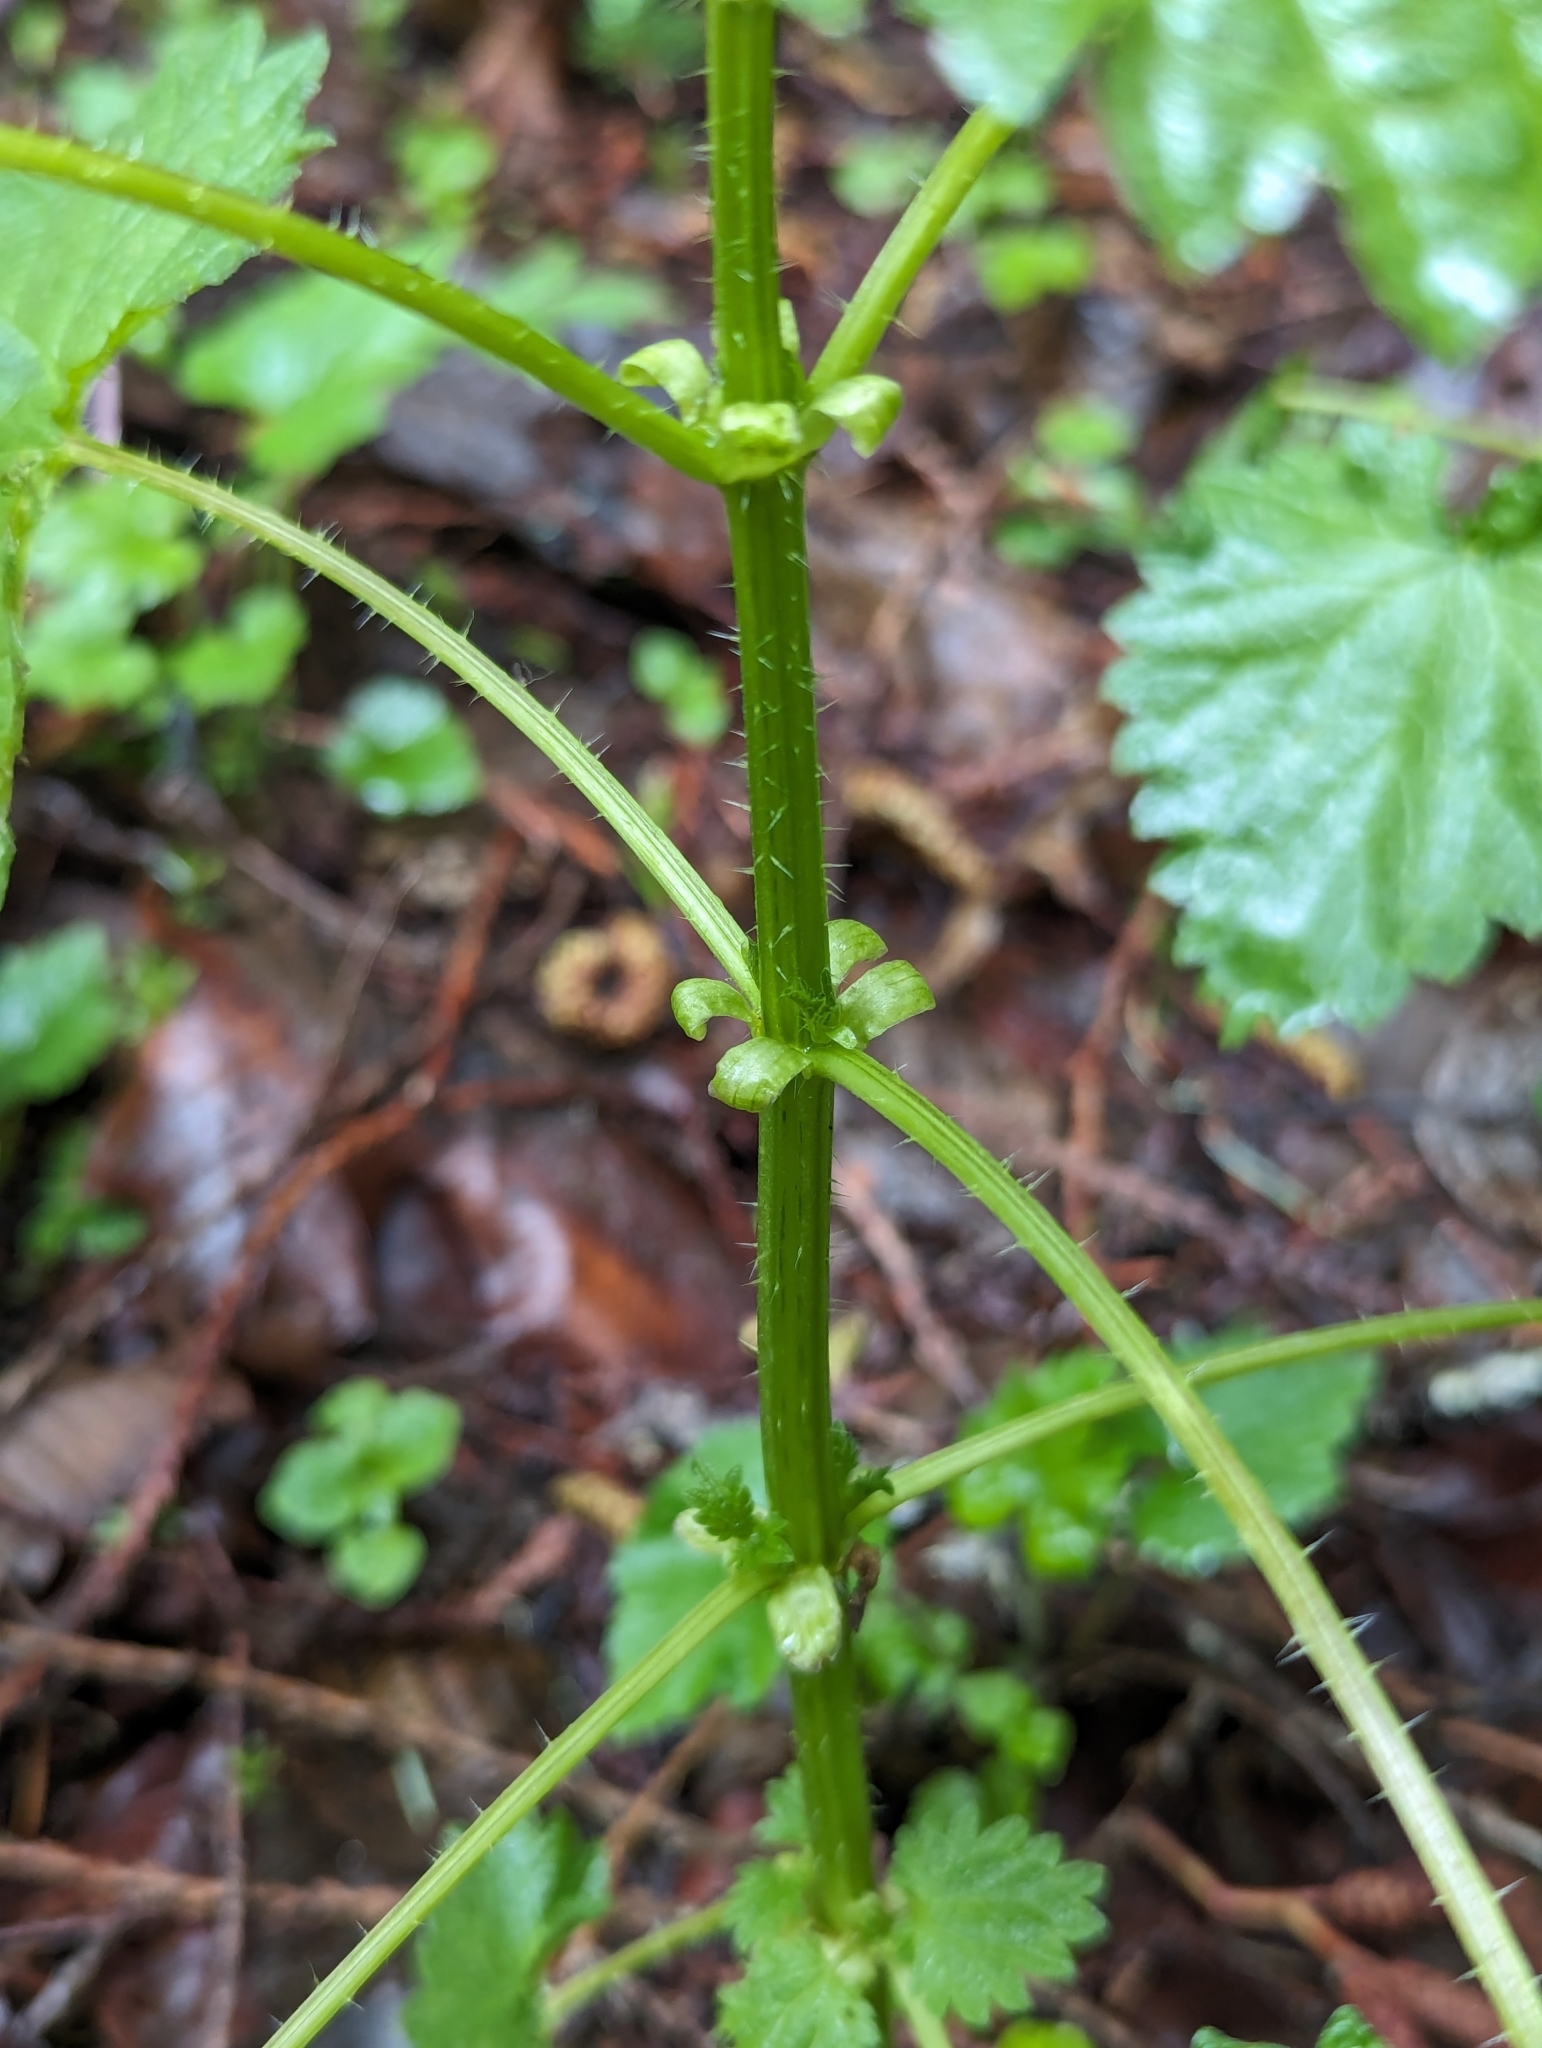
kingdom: Plantae
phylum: Tracheophyta
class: Magnoliopsida
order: Rosales
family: Urticaceae
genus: Urtica
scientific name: Urtica gracilis
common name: Slender stinging nettle
